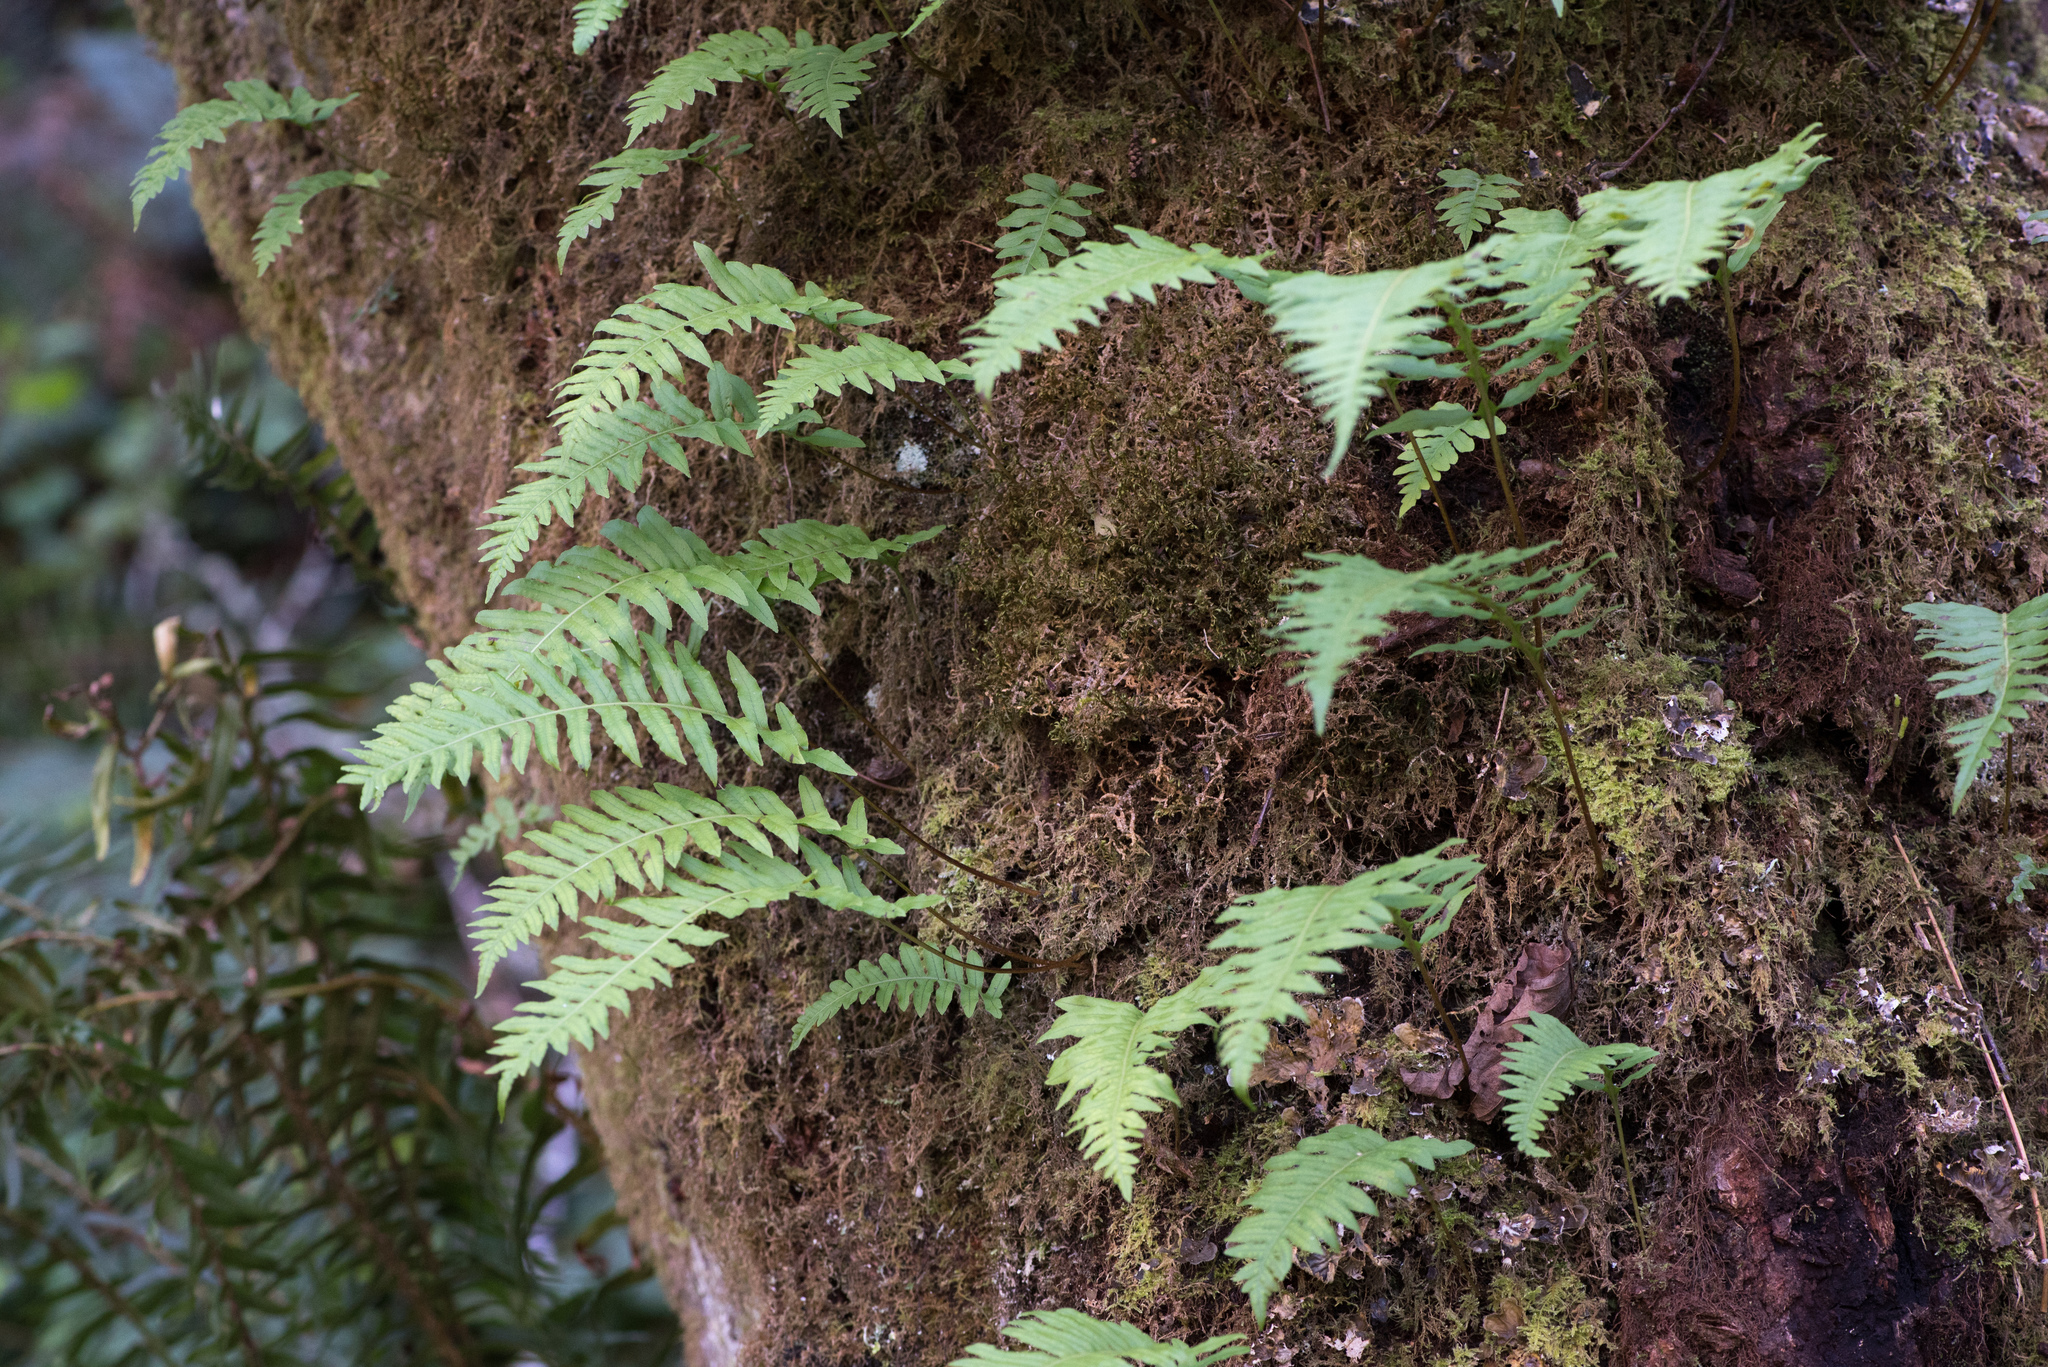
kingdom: Plantae
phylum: Tracheophyta
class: Polypodiopsida
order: Polypodiales
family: Polypodiaceae
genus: Polypodium
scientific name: Polypodium californicum
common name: California polypody
